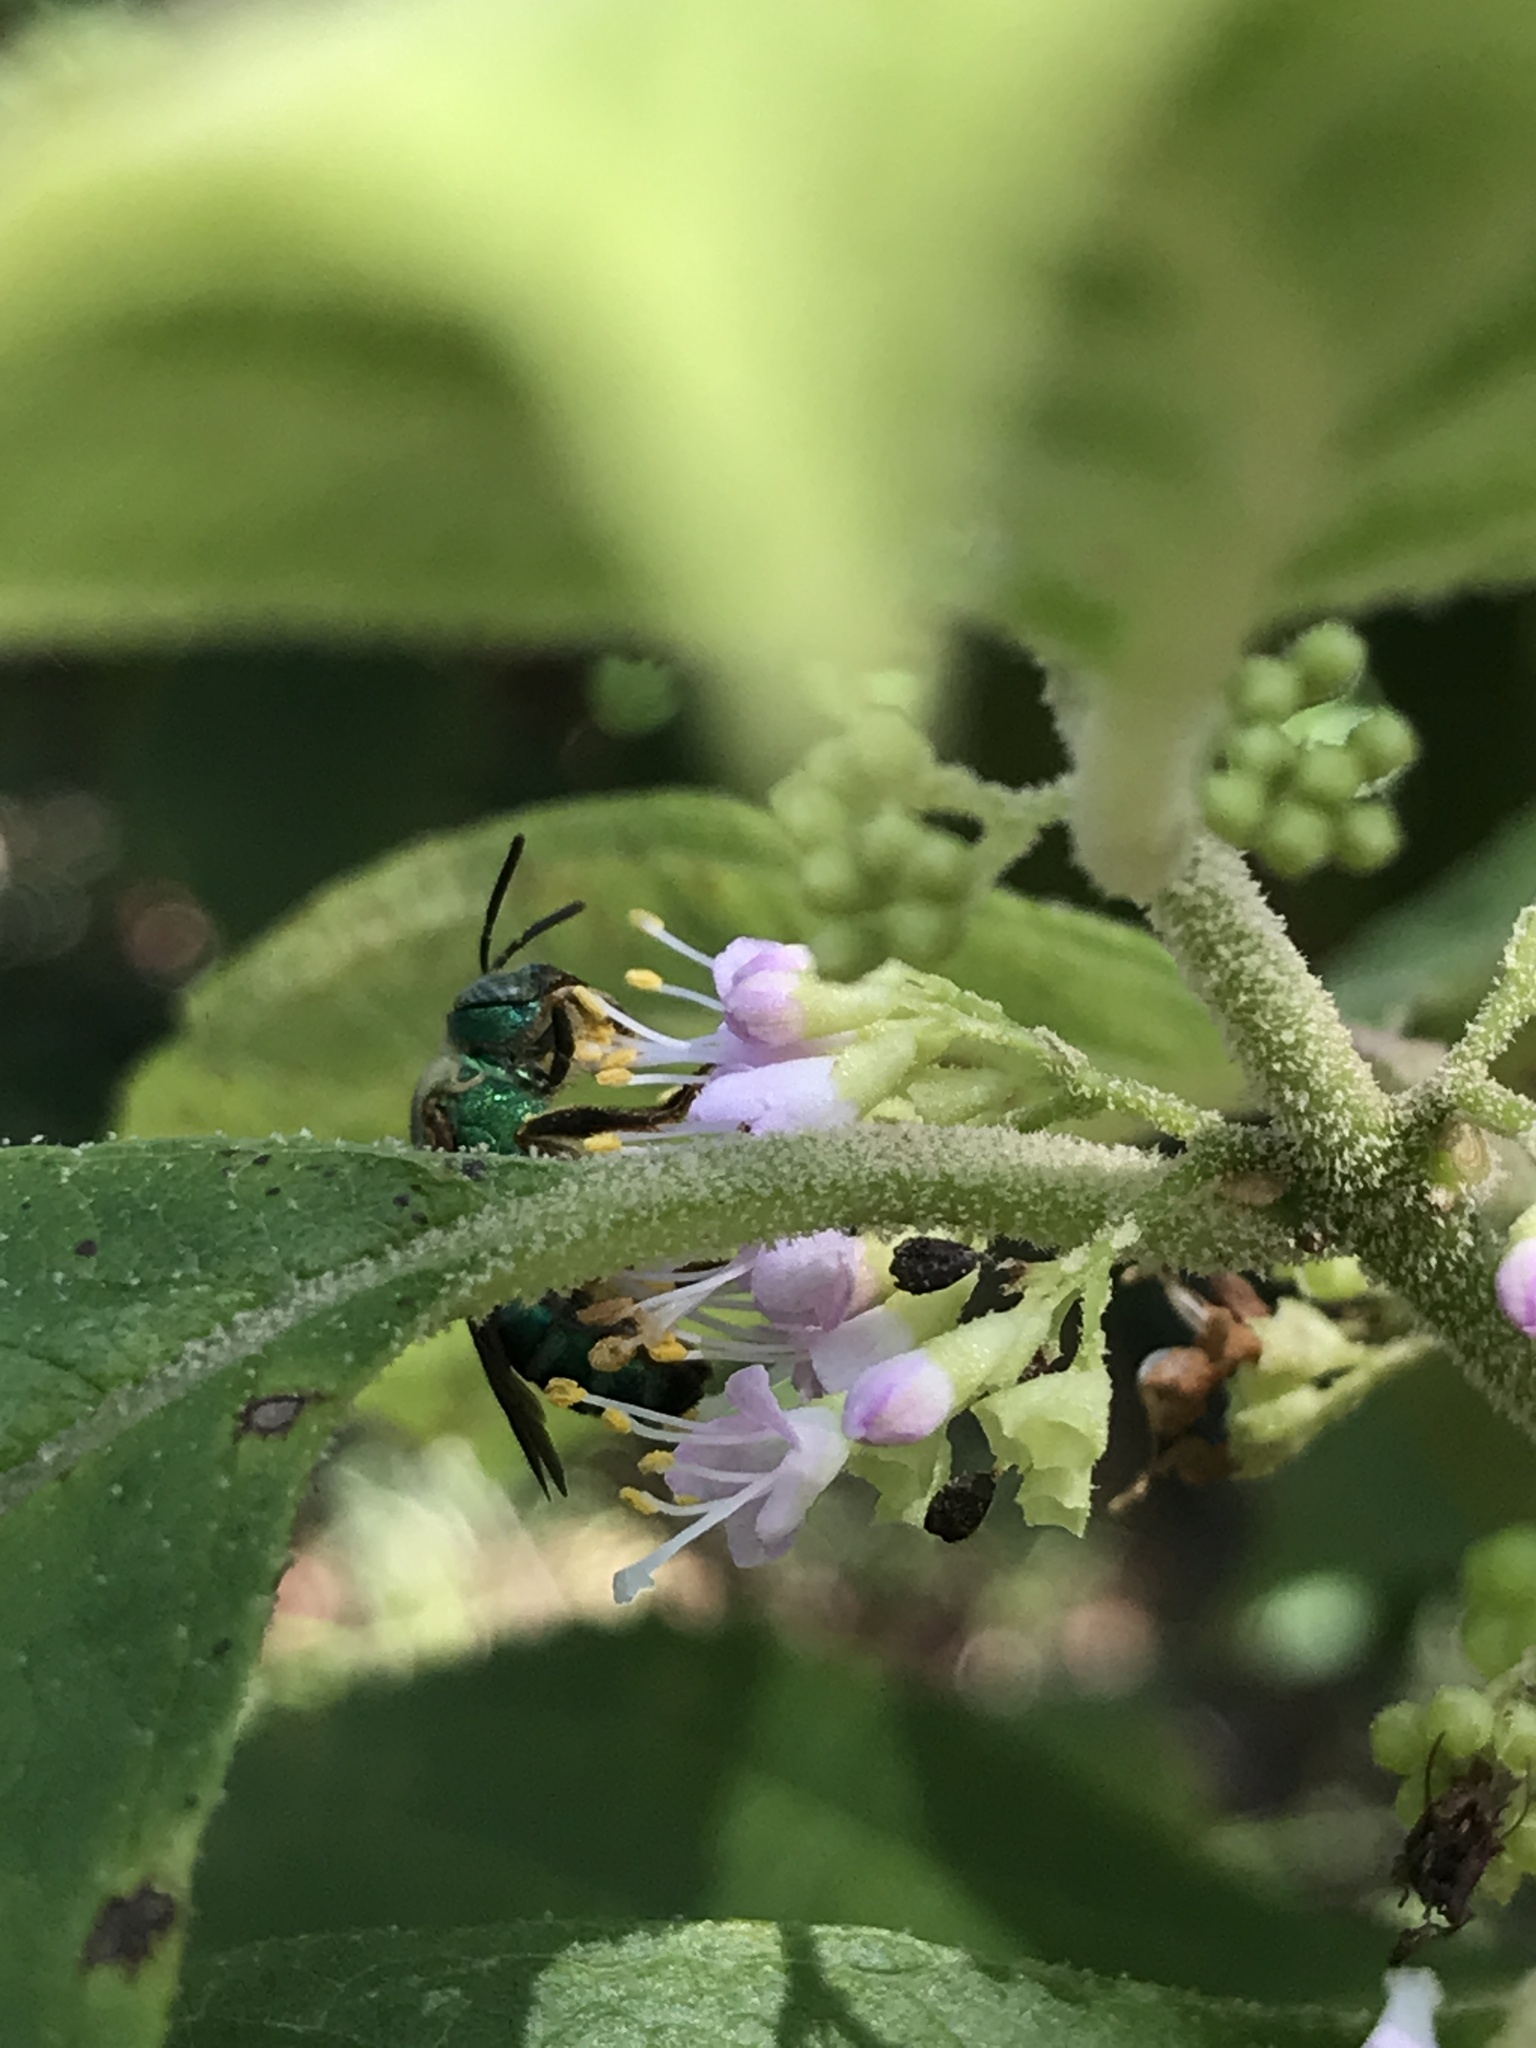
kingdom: Animalia
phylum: Arthropoda
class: Insecta
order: Hymenoptera
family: Halictidae
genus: Agapostemon
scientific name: Agapostemon splendens
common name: Brown-winged striped sweat bee
